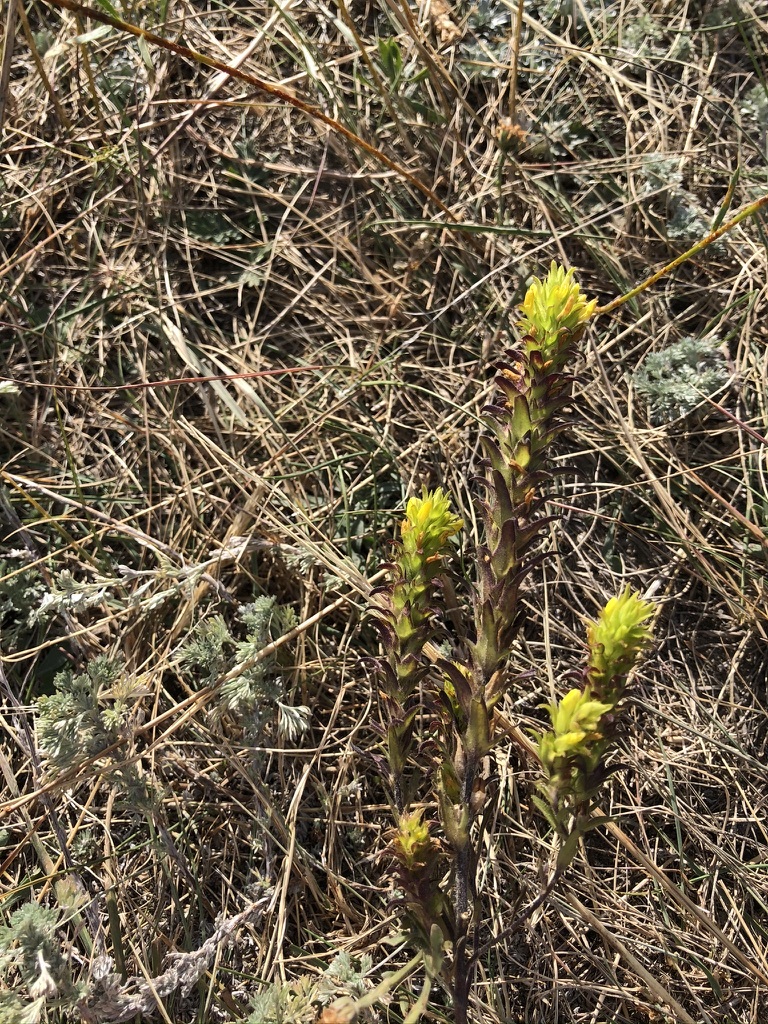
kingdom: Plantae
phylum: Tracheophyta
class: Magnoliopsida
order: Lamiales
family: Orobanchaceae
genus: Orthocarpus
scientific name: Orthocarpus luteus
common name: Golden-tongue owl's-clover
